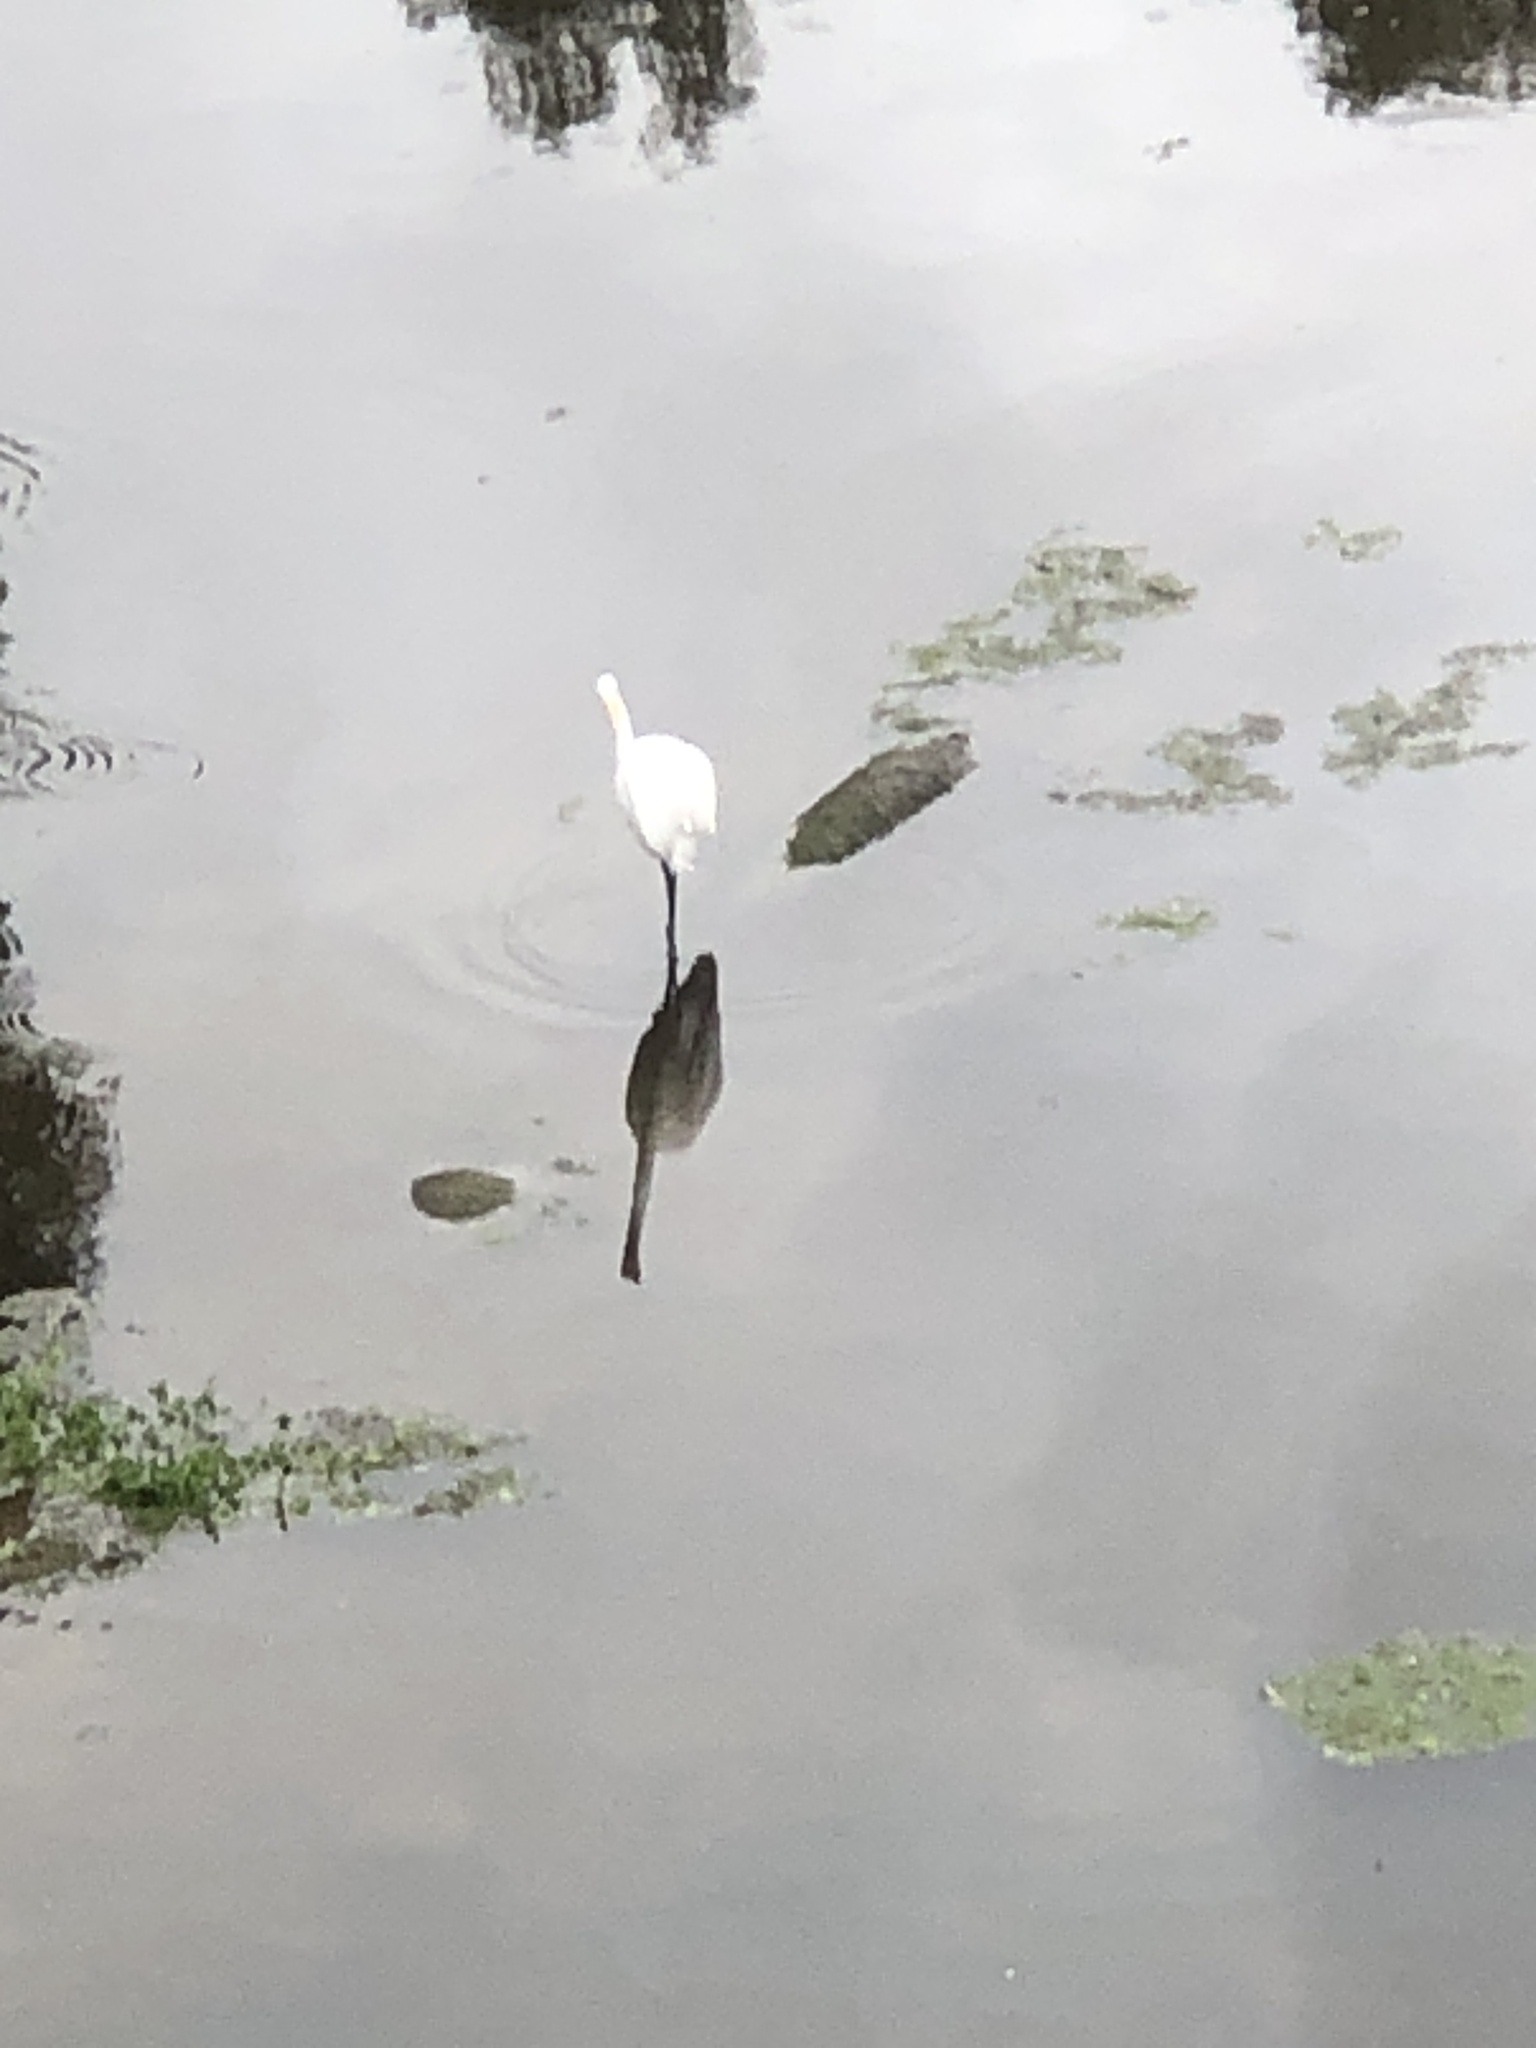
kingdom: Animalia
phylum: Chordata
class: Aves
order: Pelecaniformes
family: Ardeidae
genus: Ardea
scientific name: Ardea alba
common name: Great egret
